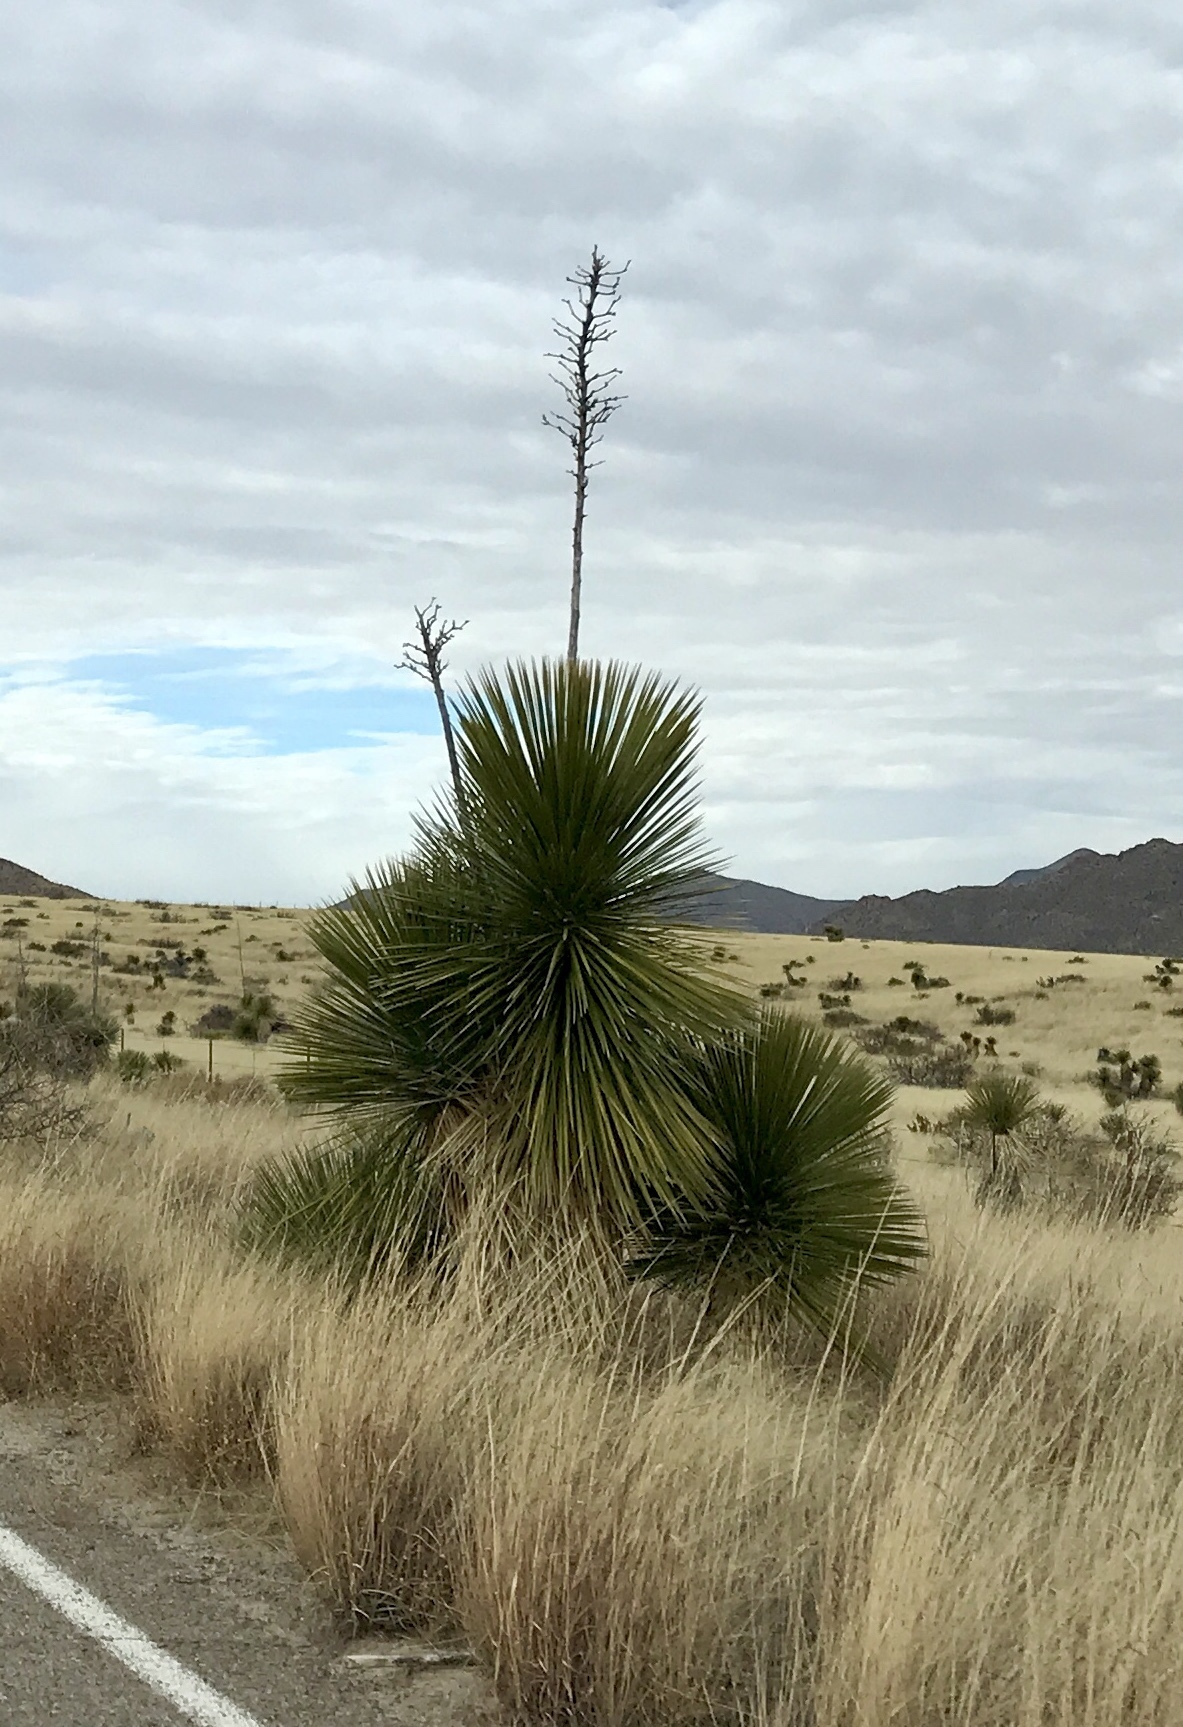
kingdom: Plantae
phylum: Tracheophyta
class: Liliopsida
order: Asparagales
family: Asparagaceae
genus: Yucca
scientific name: Yucca elata
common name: Palmella
